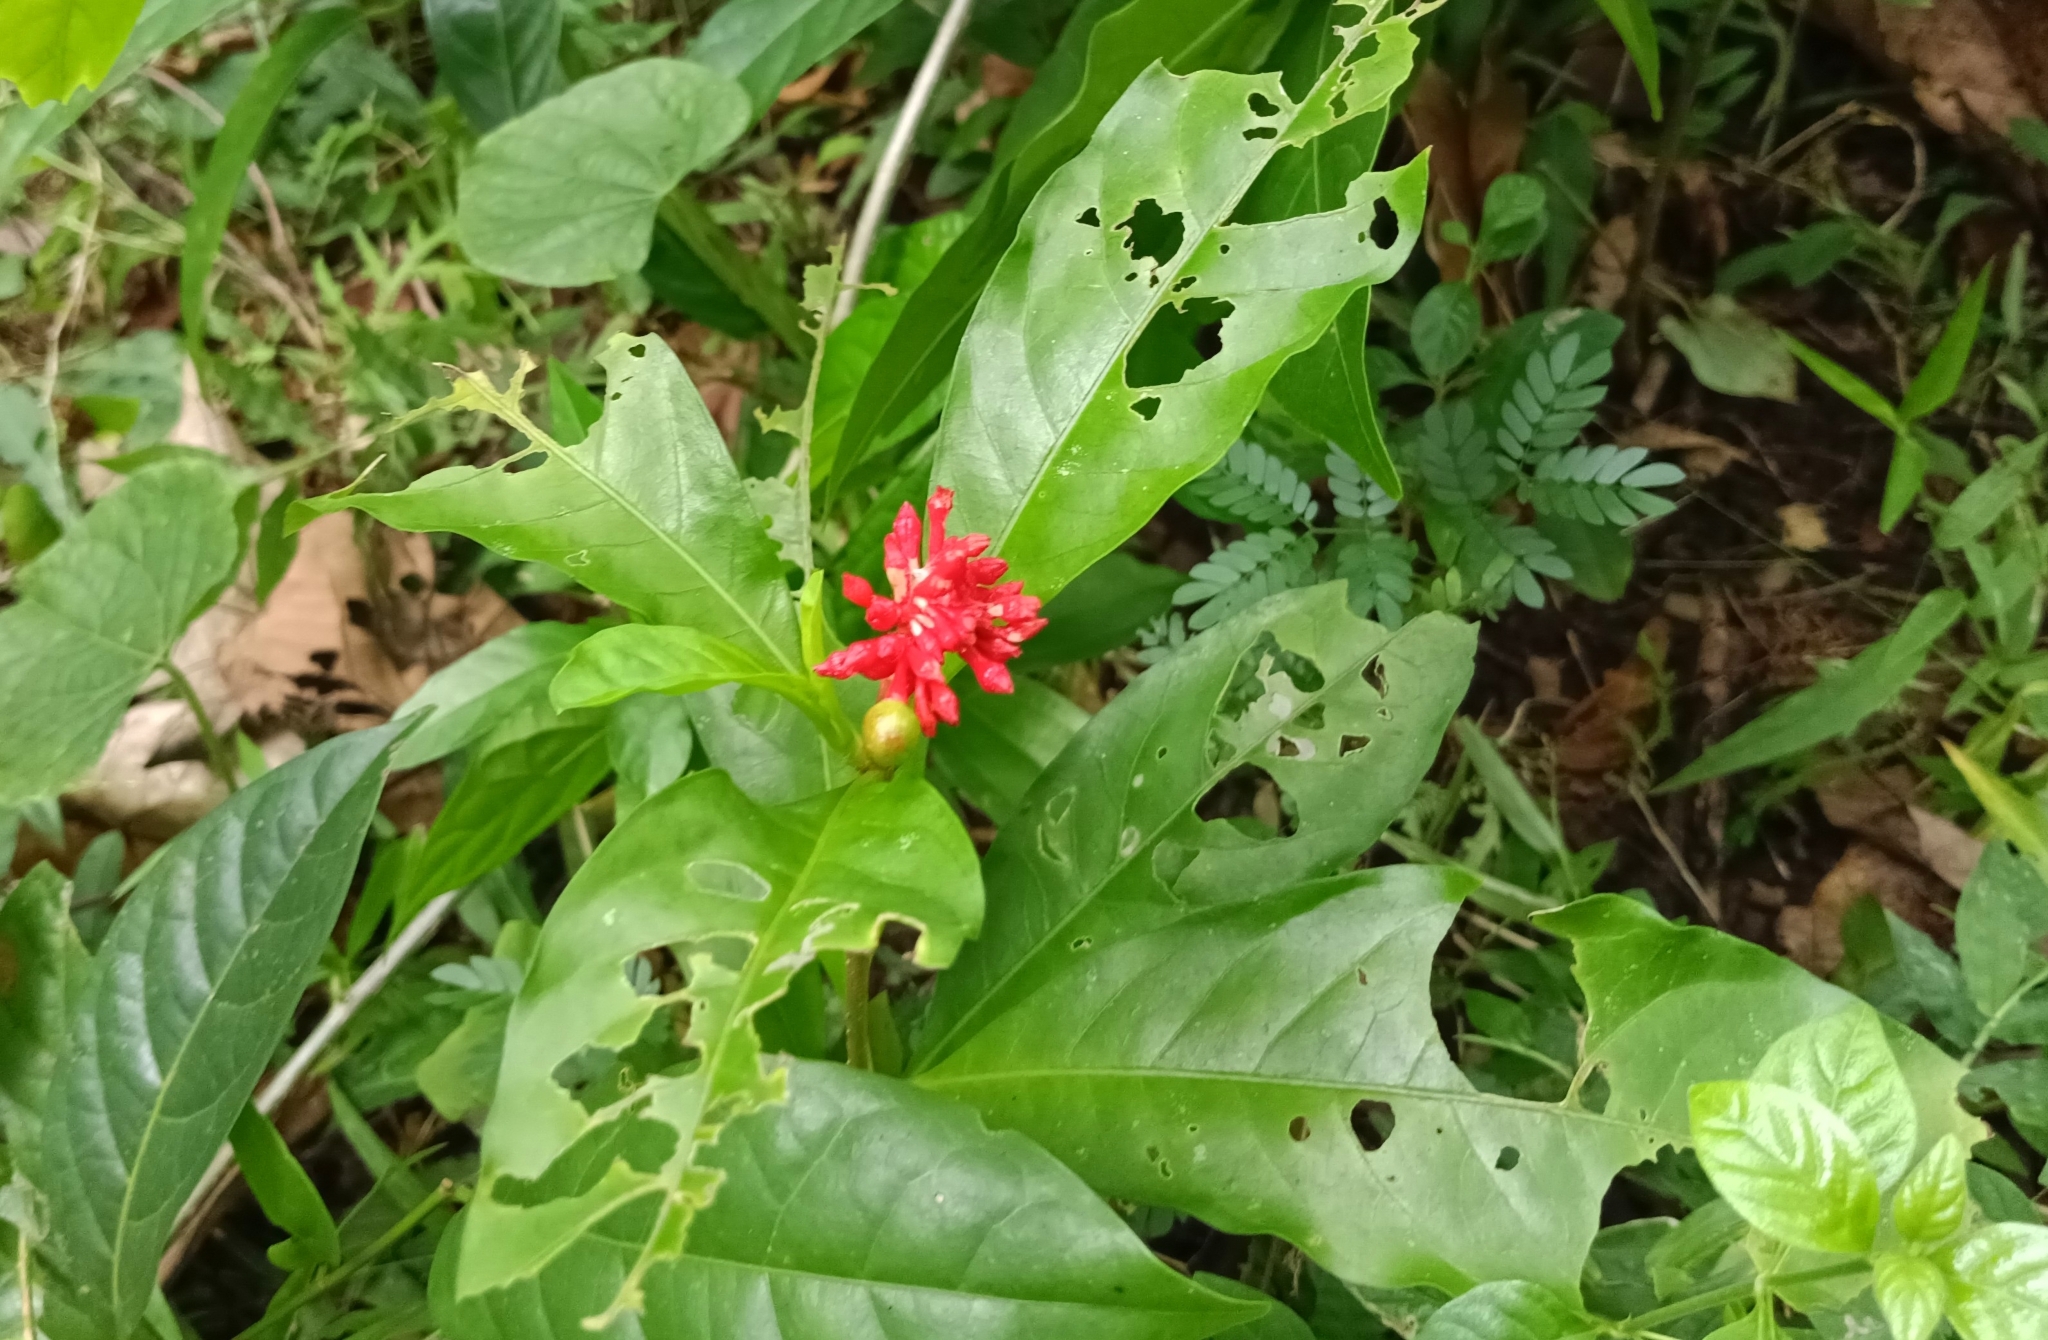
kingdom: Plantae
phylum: Tracheophyta
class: Magnoliopsida
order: Gentianales
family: Apocynaceae
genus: Rauvolfia
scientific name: Rauvolfia serpentina
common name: Ajmaline
